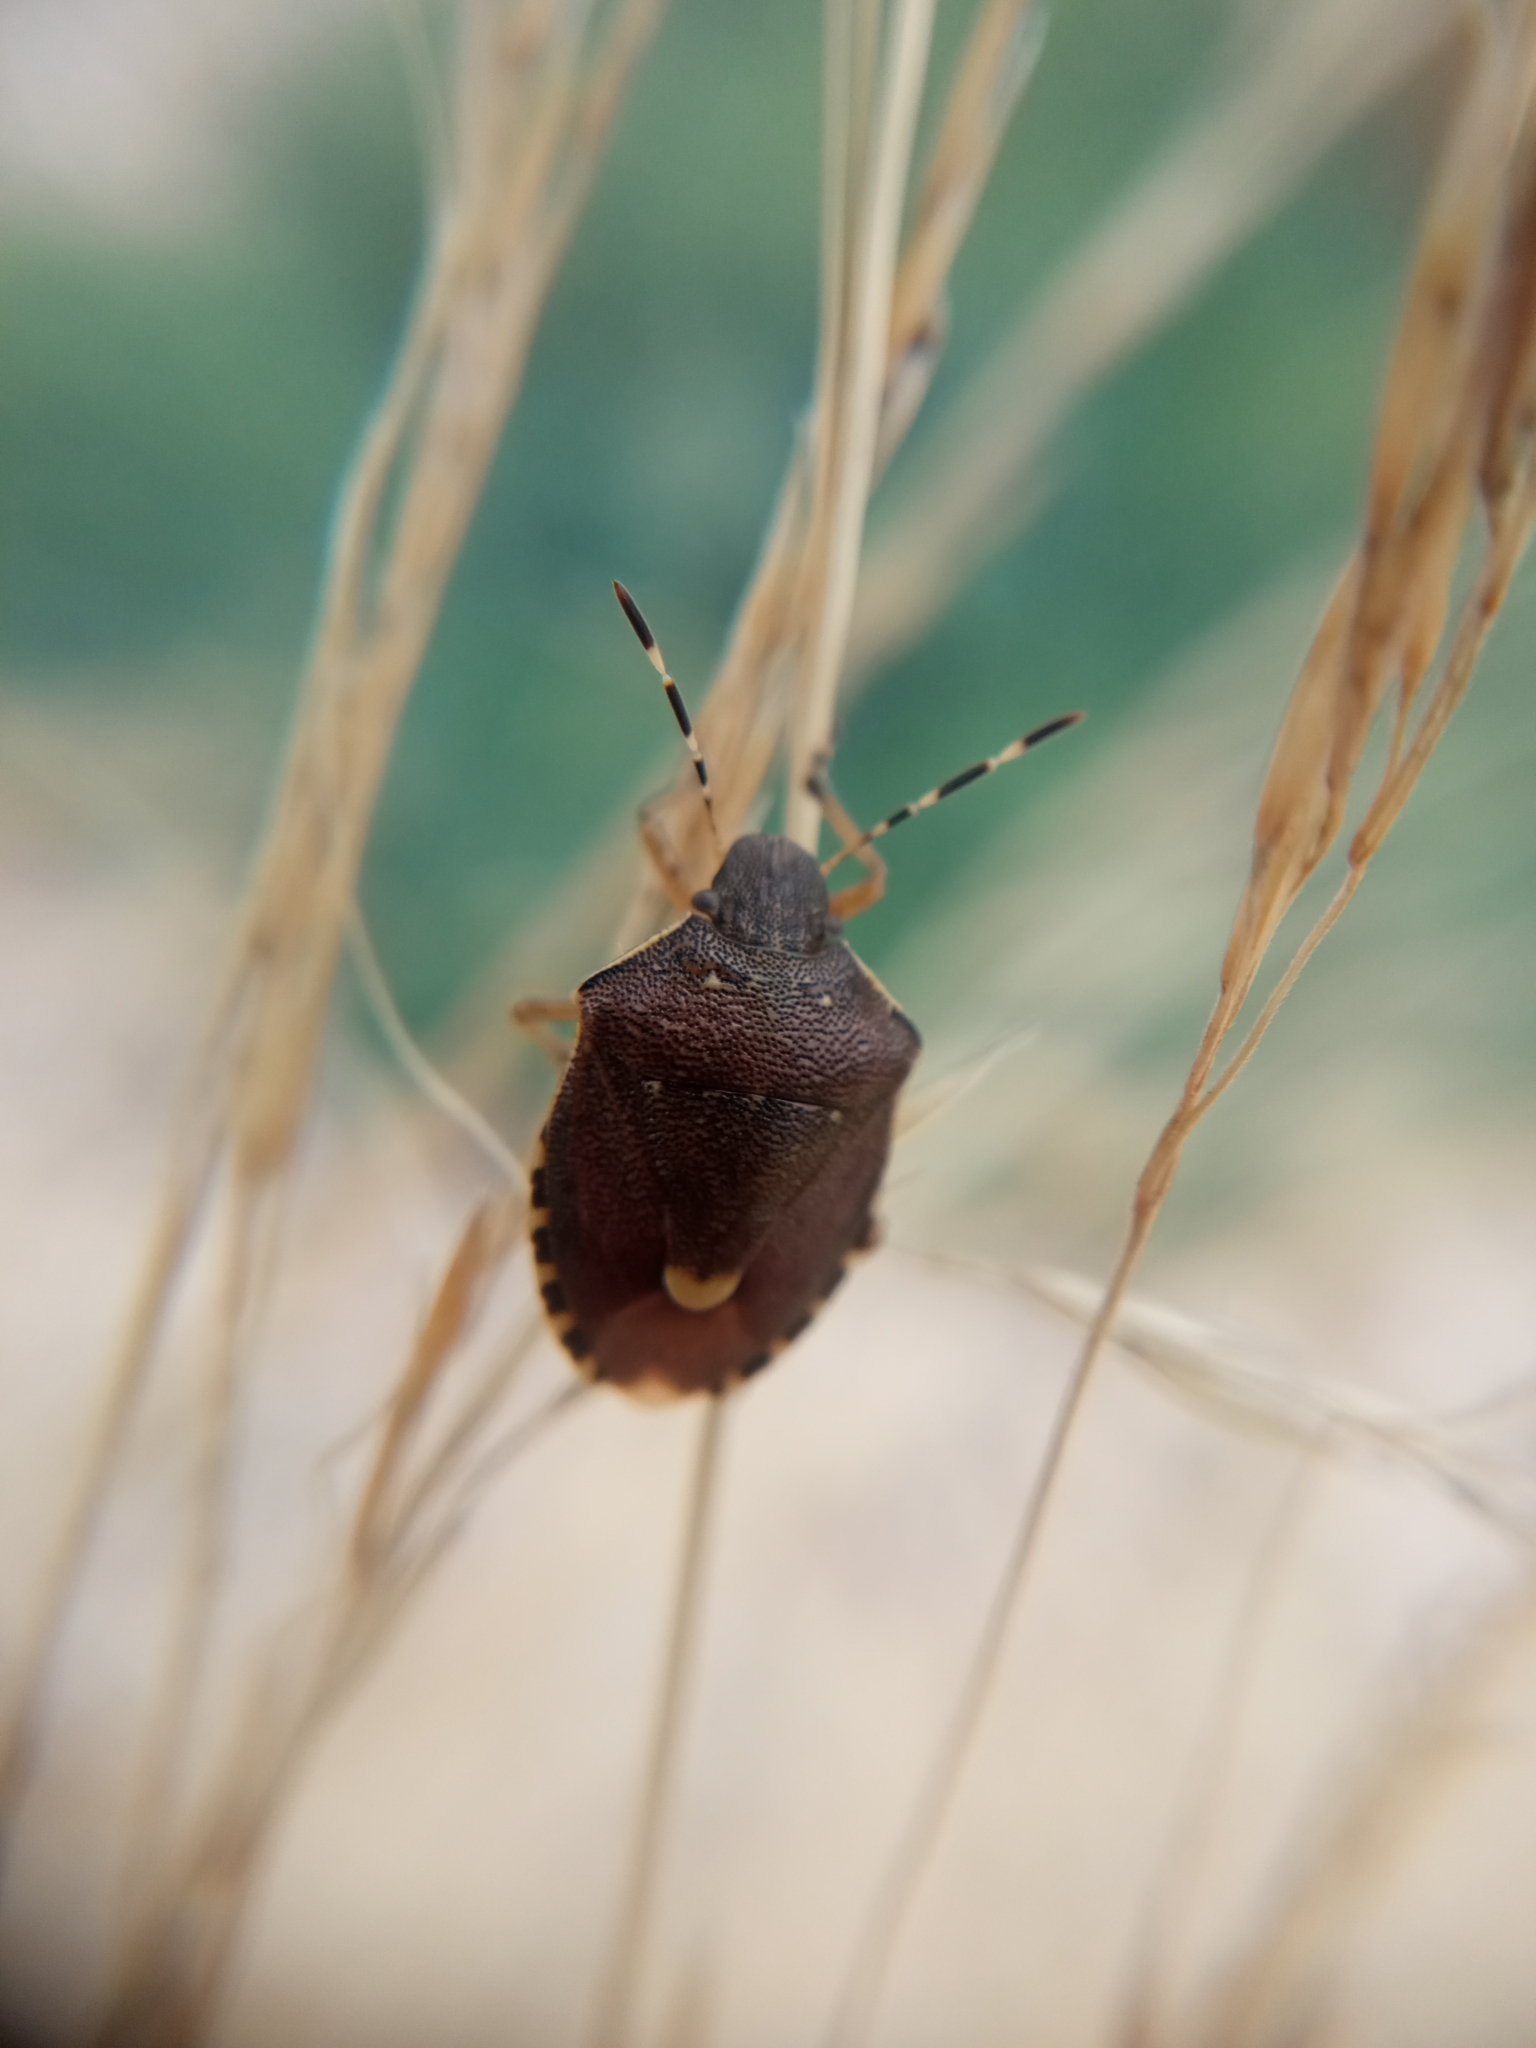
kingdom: Animalia
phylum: Arthropoda
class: Insecta
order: Hemiptera
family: Pentatomidae
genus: Holcostethus
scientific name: Holcostethus sphacelatus
